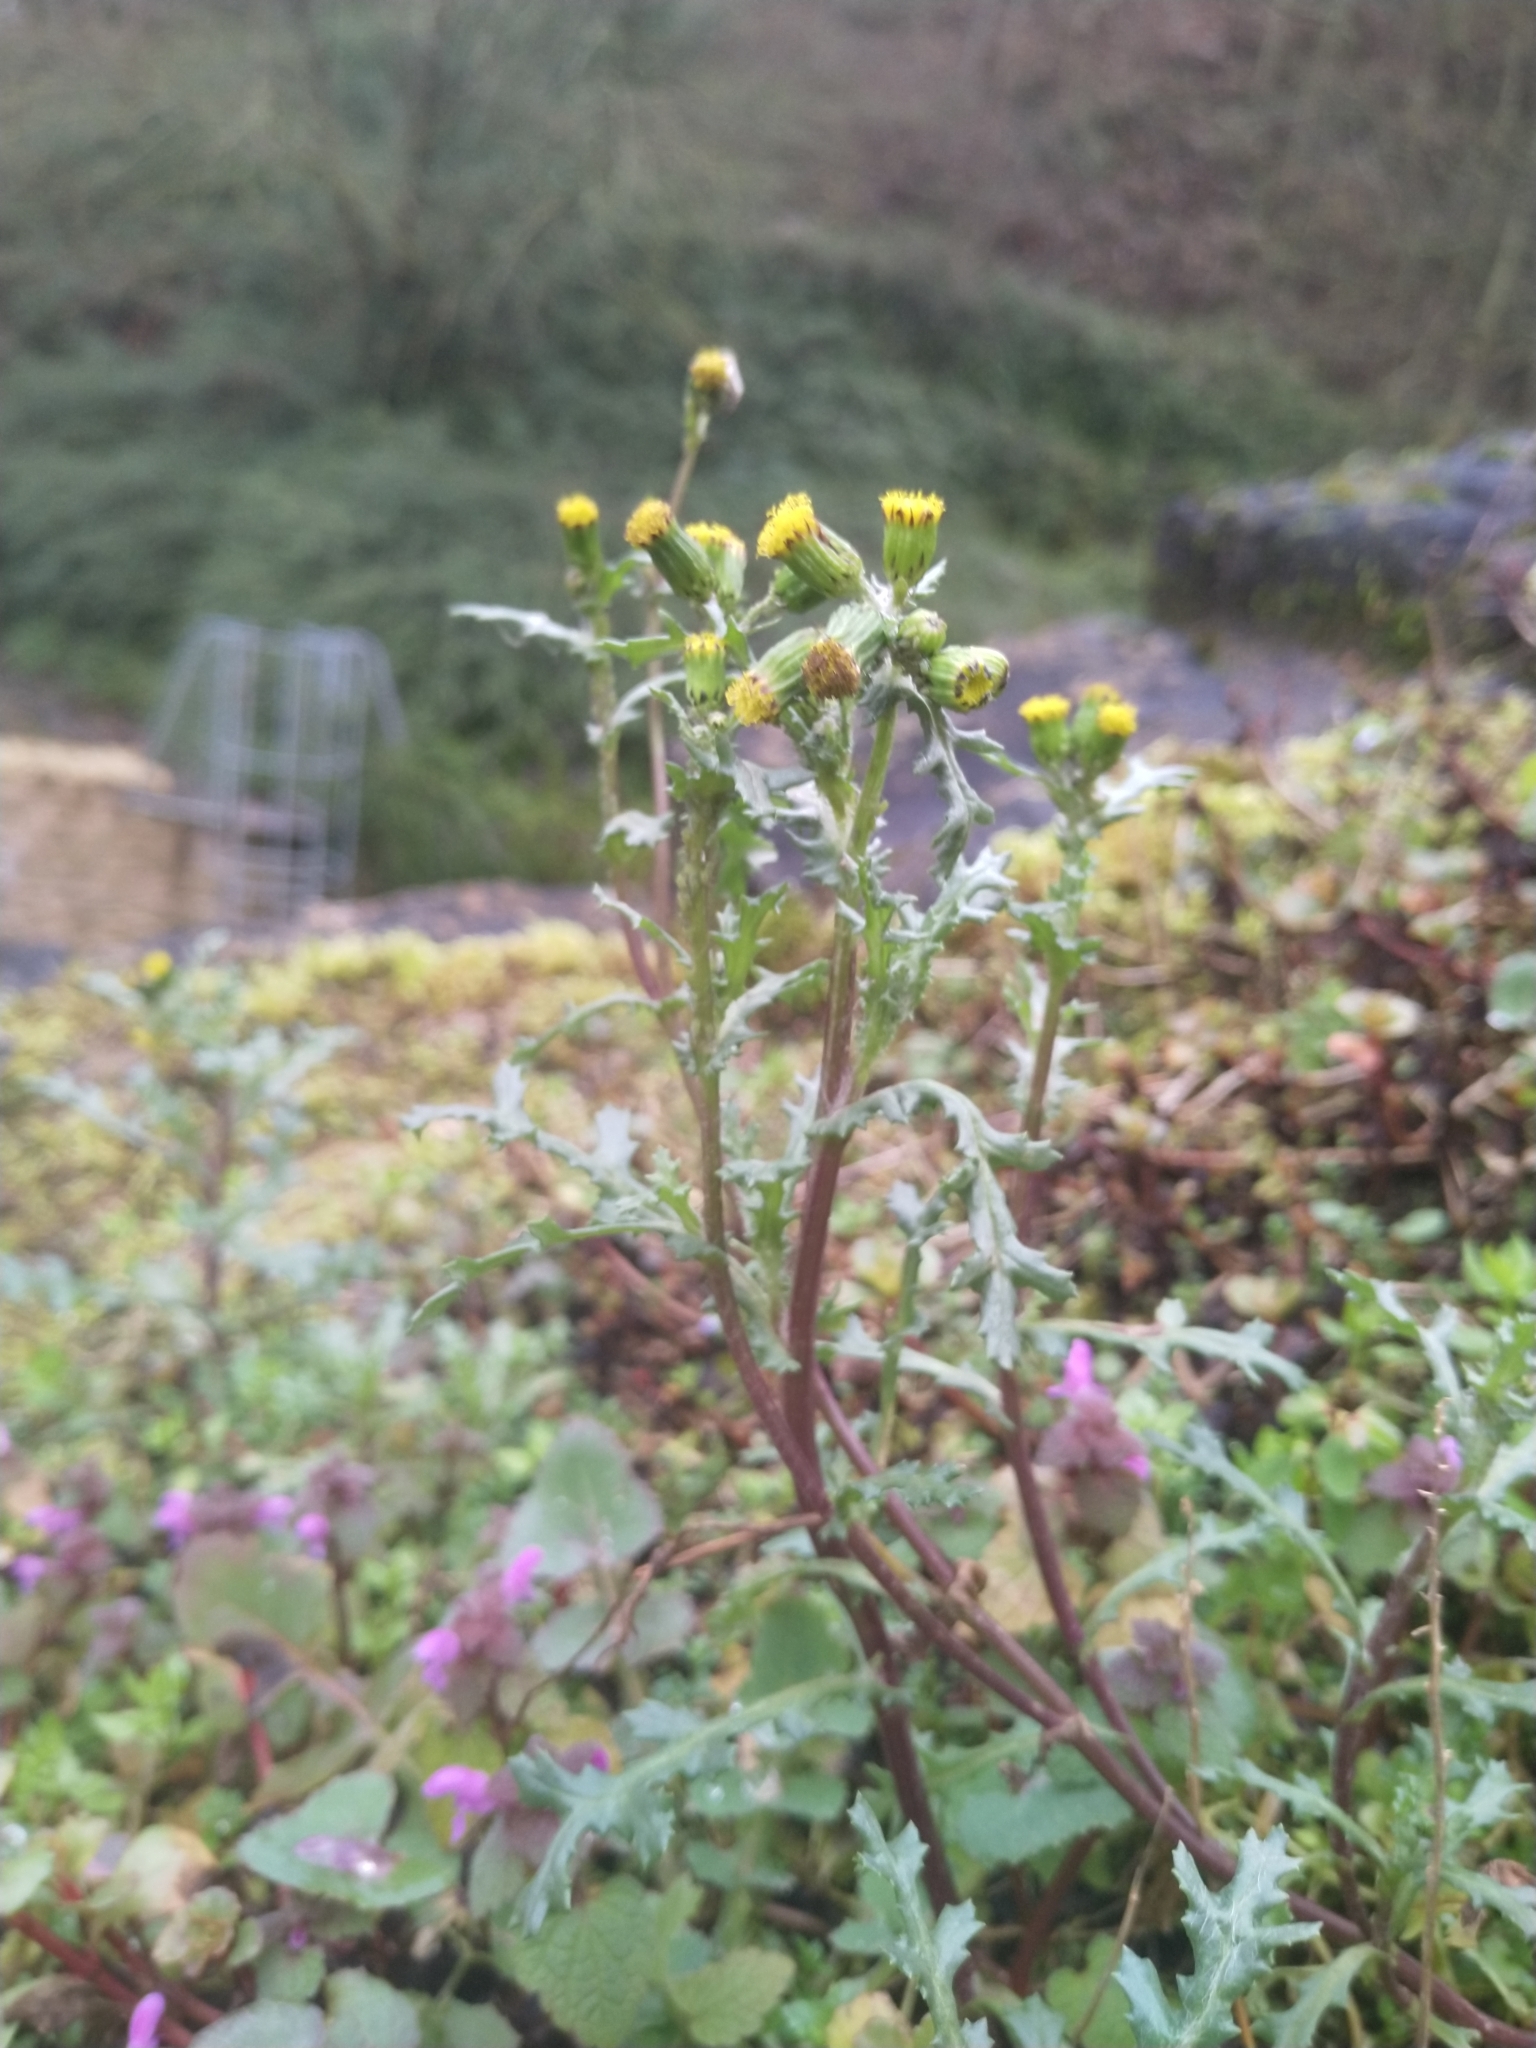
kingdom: Plantae
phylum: Tracheophyta
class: Magnoliopsida
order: Asterales
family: Asteraceae
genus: Senecio
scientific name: Senecio vulgaris
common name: Old-man-in-the-spring
